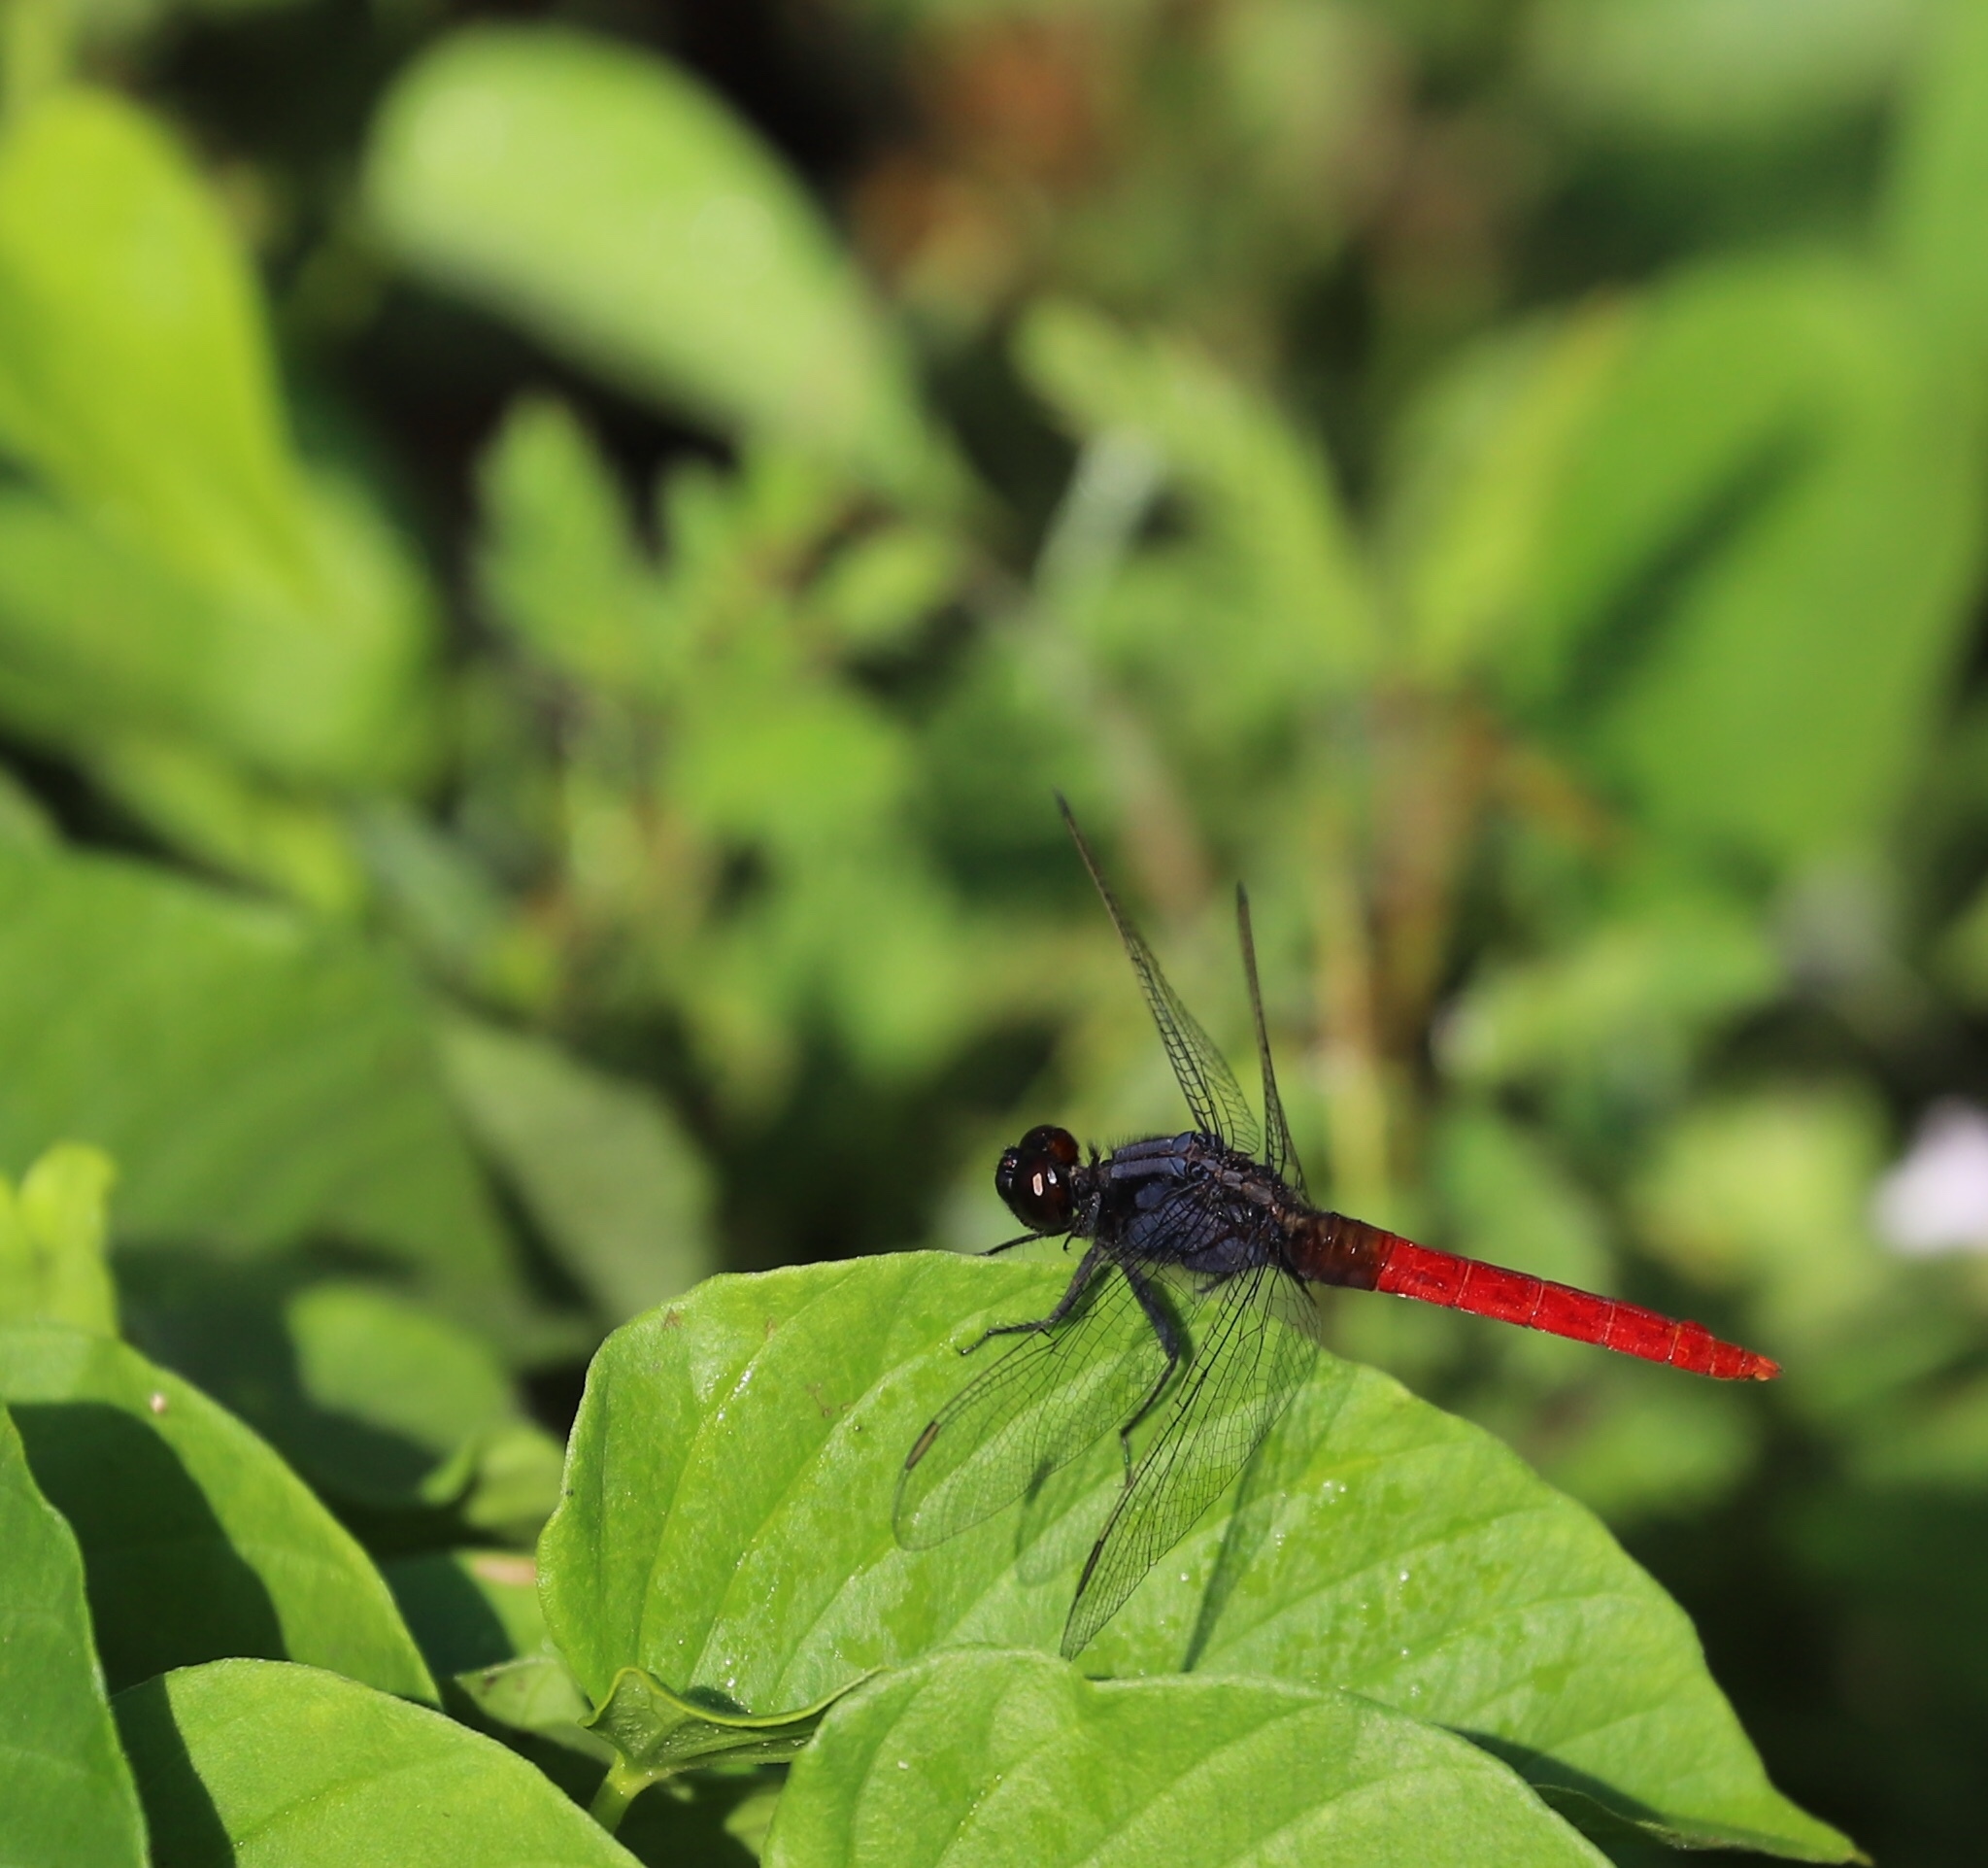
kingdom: Animalia
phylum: Arthropoda
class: Insecta
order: Odonata
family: Libellulidae
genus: Erythemis
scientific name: Erythemis peruviana
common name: Flame-tailed pondhawk
